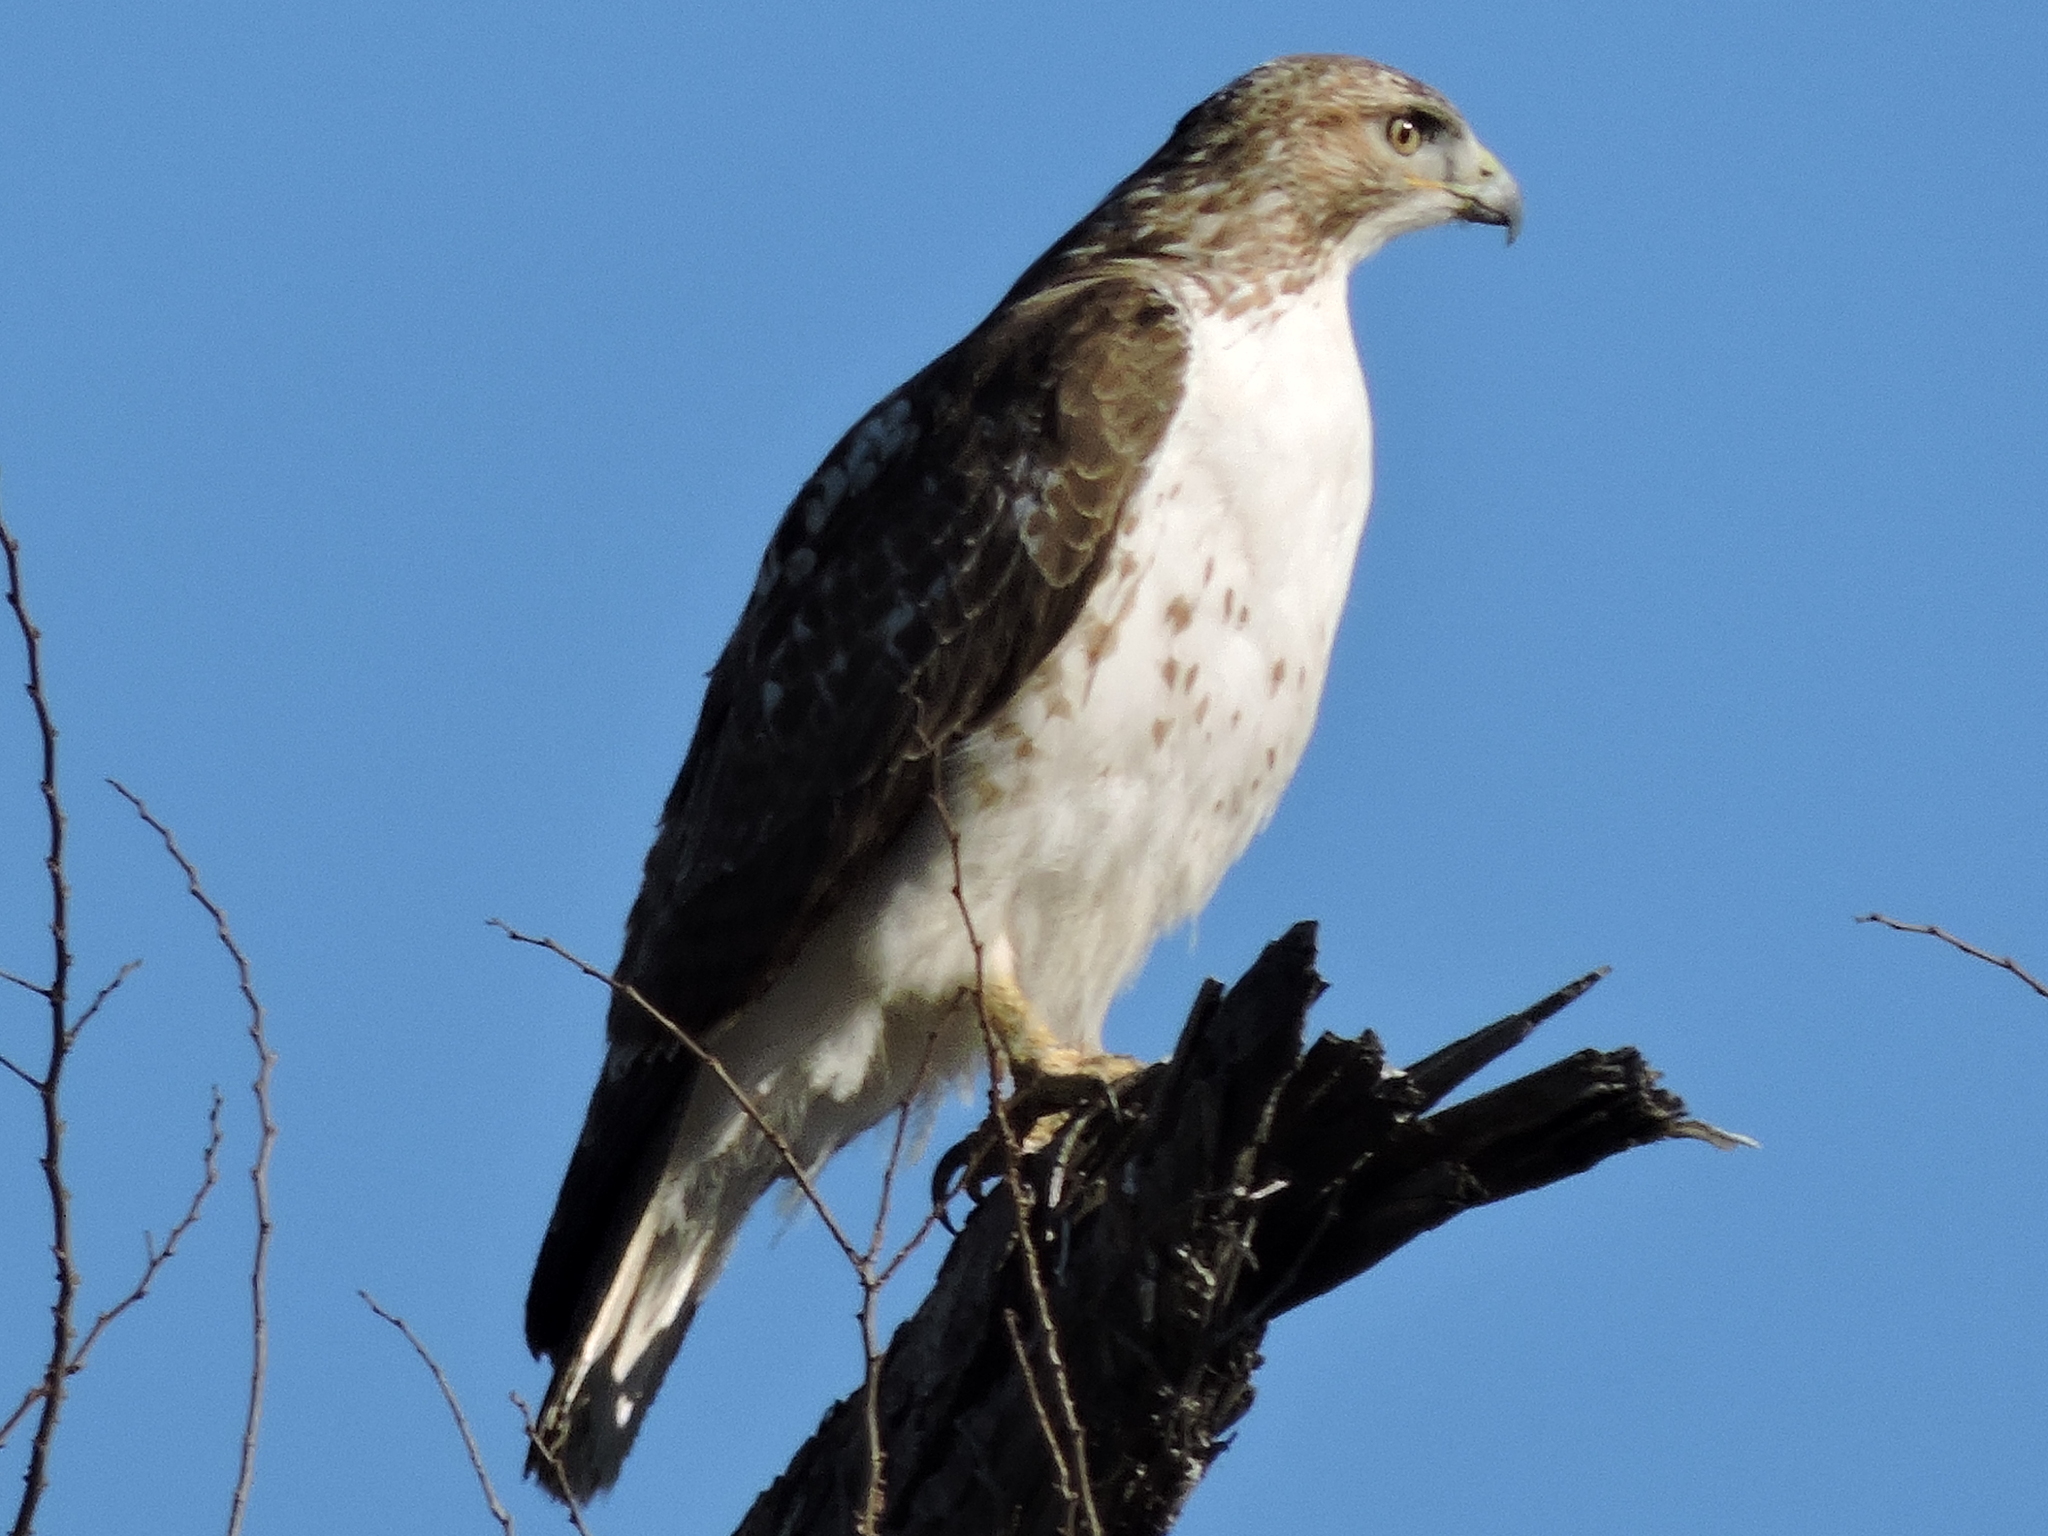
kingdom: Animalia
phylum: Chordata
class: Aves
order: Accipitriformes
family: Accipitridae
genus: Buteo
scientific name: Buteo jamaicensis
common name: Red-tailed hawk
